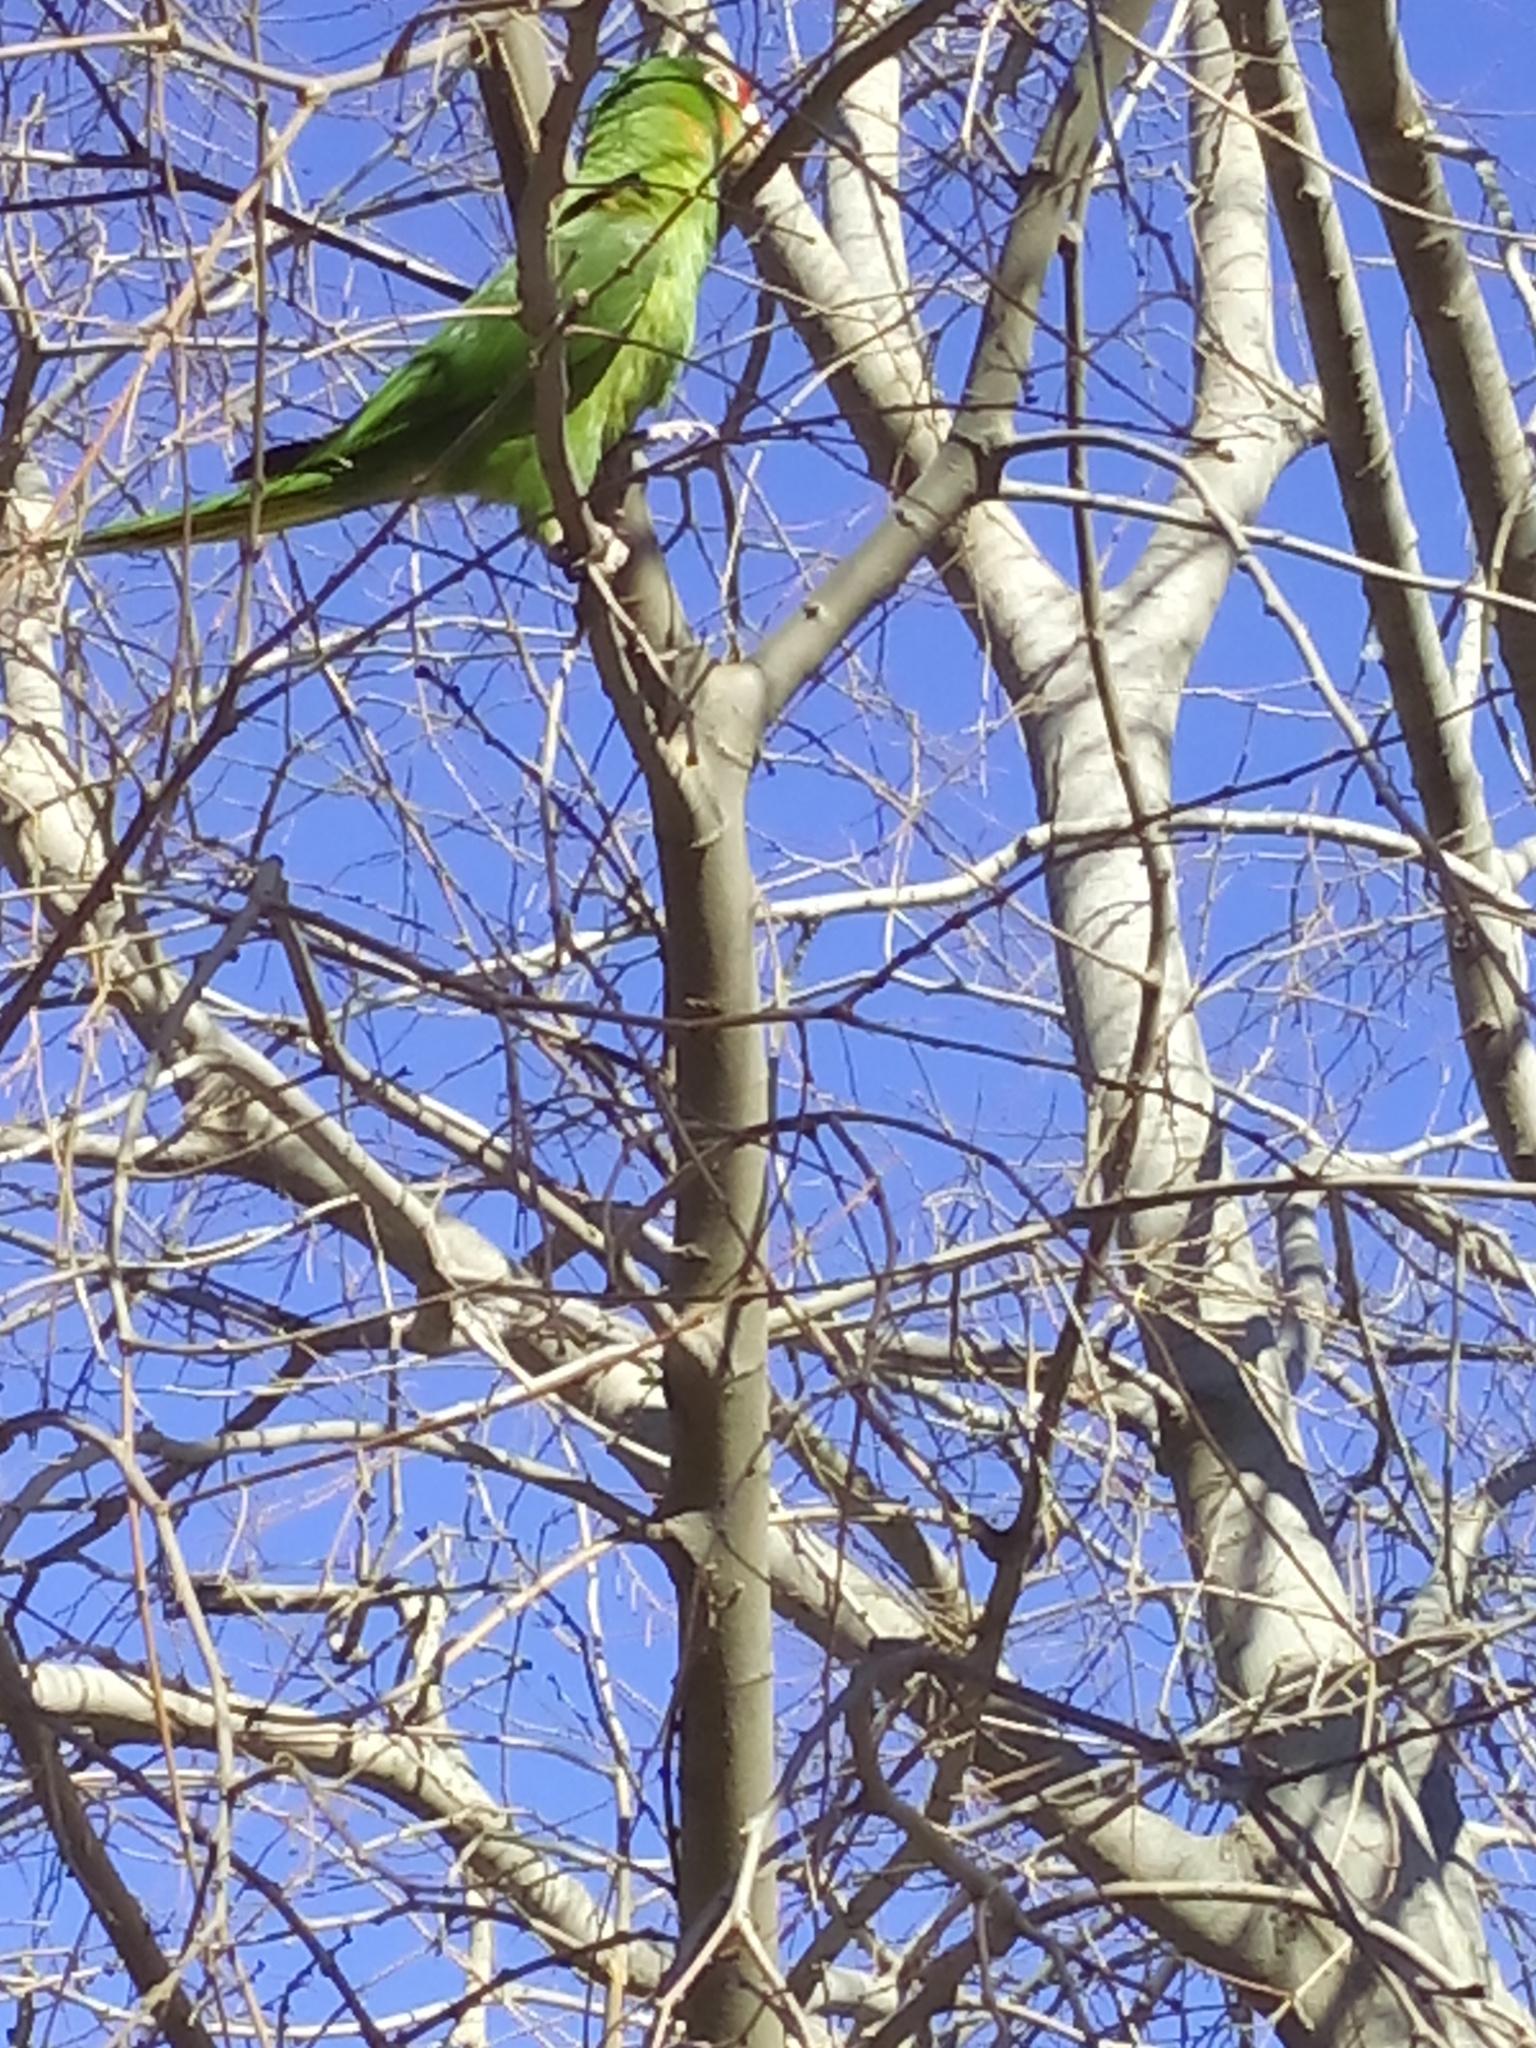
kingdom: Animalia
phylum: Chordata
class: Aves
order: Psittaciformes
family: Psittacidae
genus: Aratinga
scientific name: Aratinga mitrata
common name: Mitred parakeet
